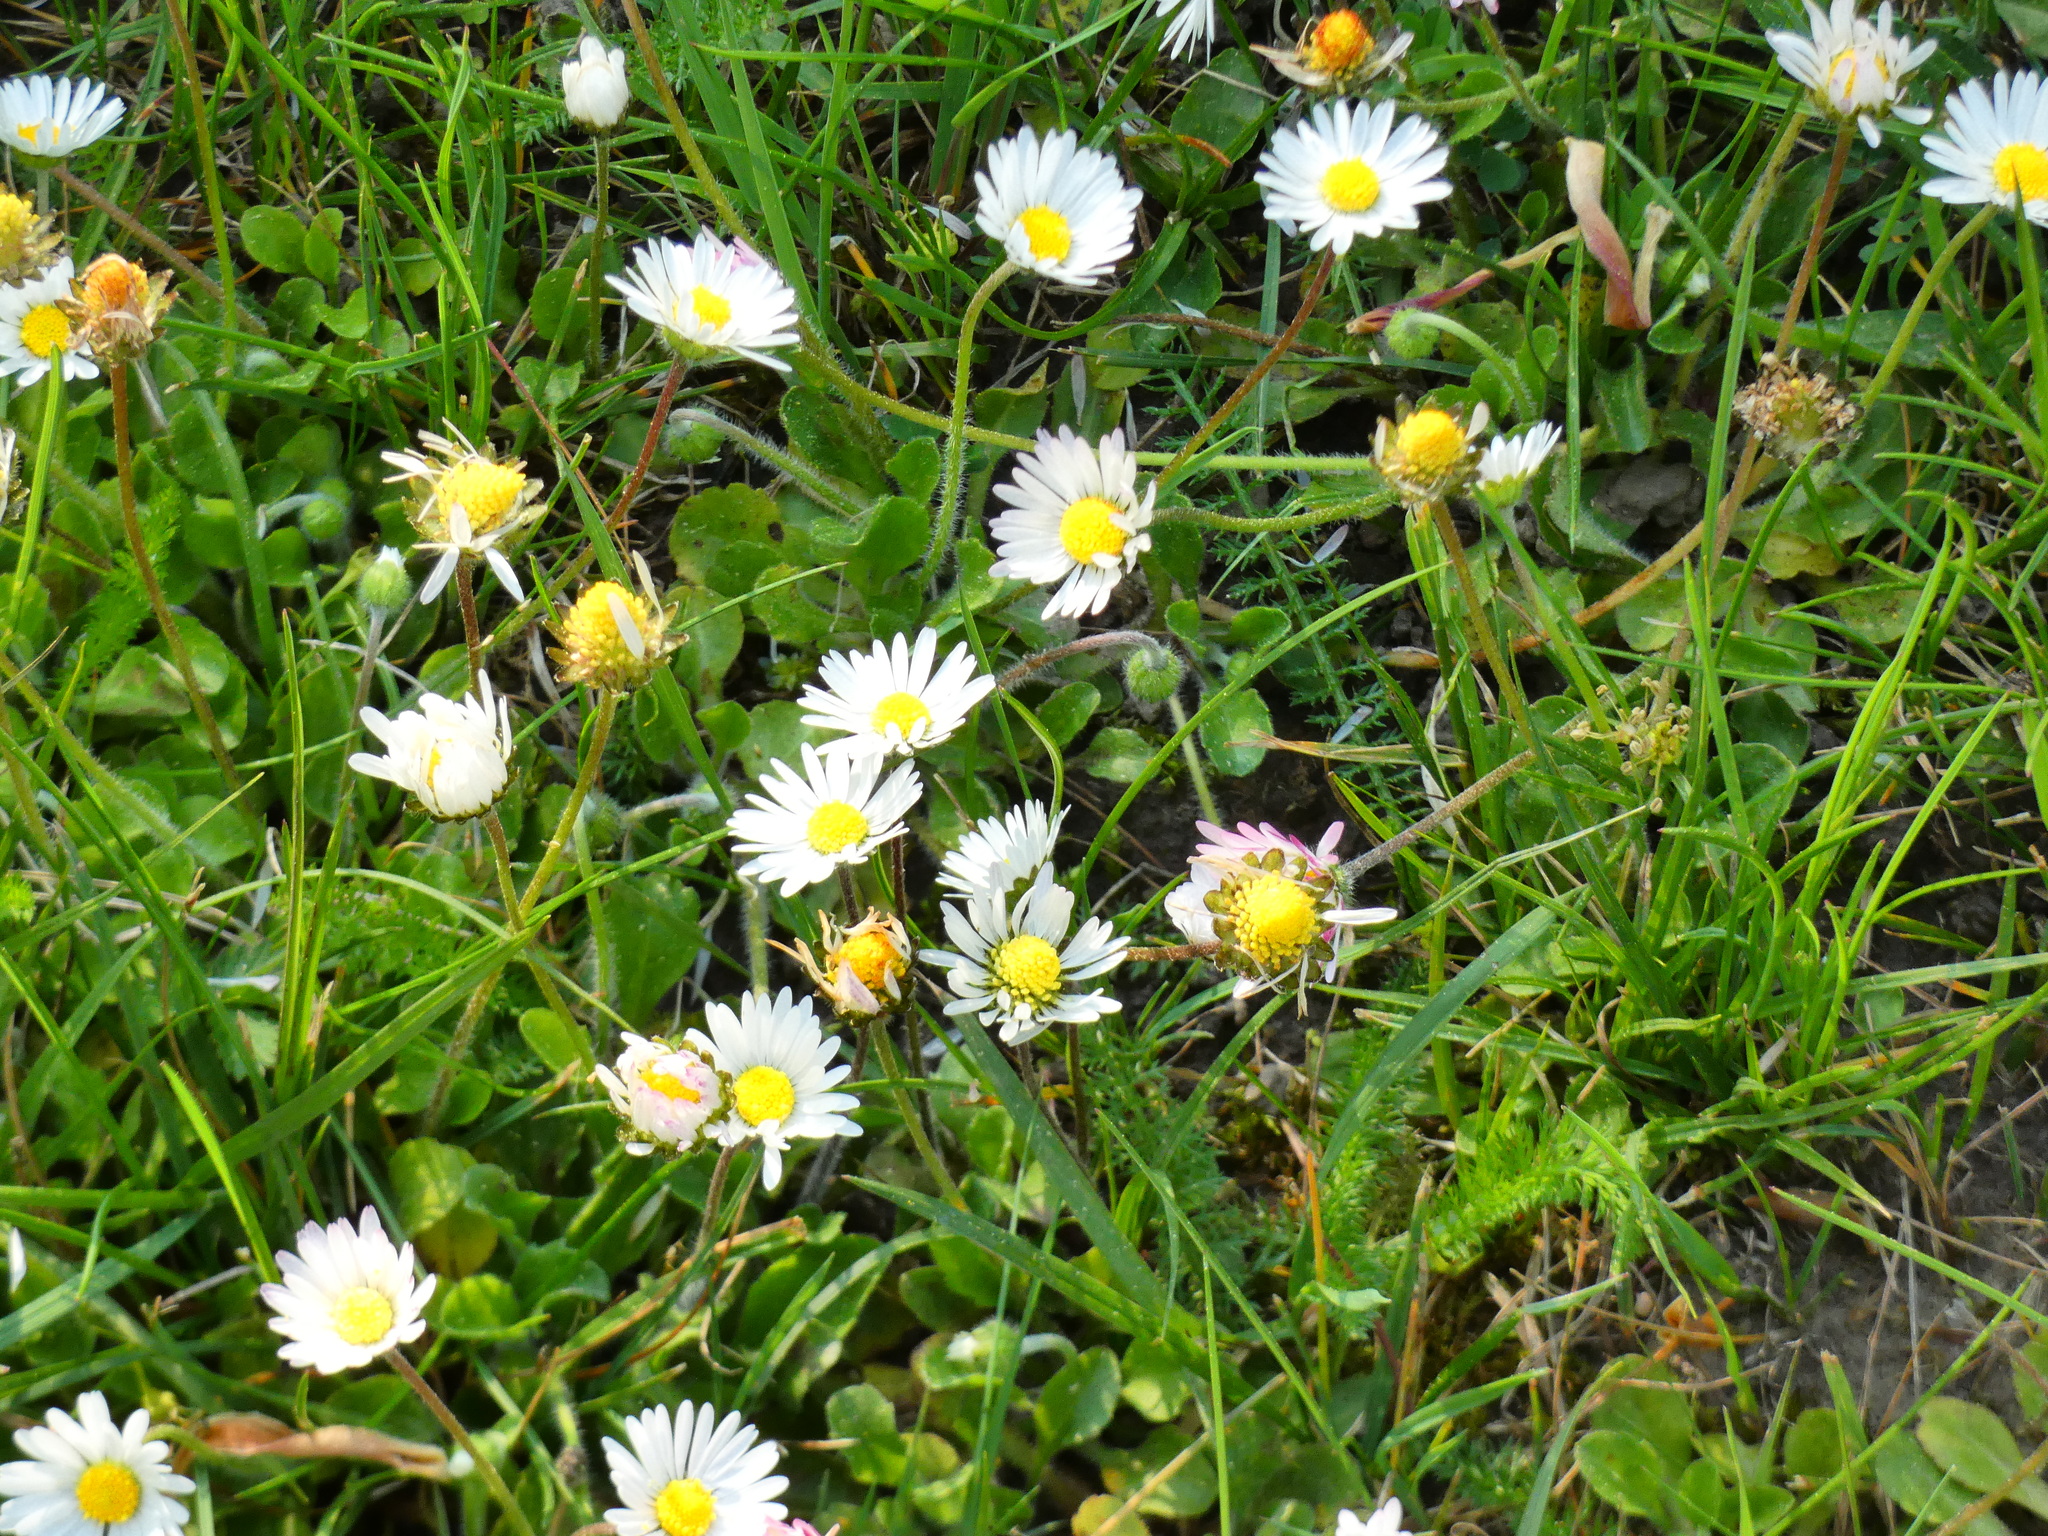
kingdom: Plantae
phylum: Tracheophyta
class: Magnoliopsida
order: Asterales
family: Asteraceae
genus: Bellis
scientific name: Bellis perennis
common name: Lawndaisy
